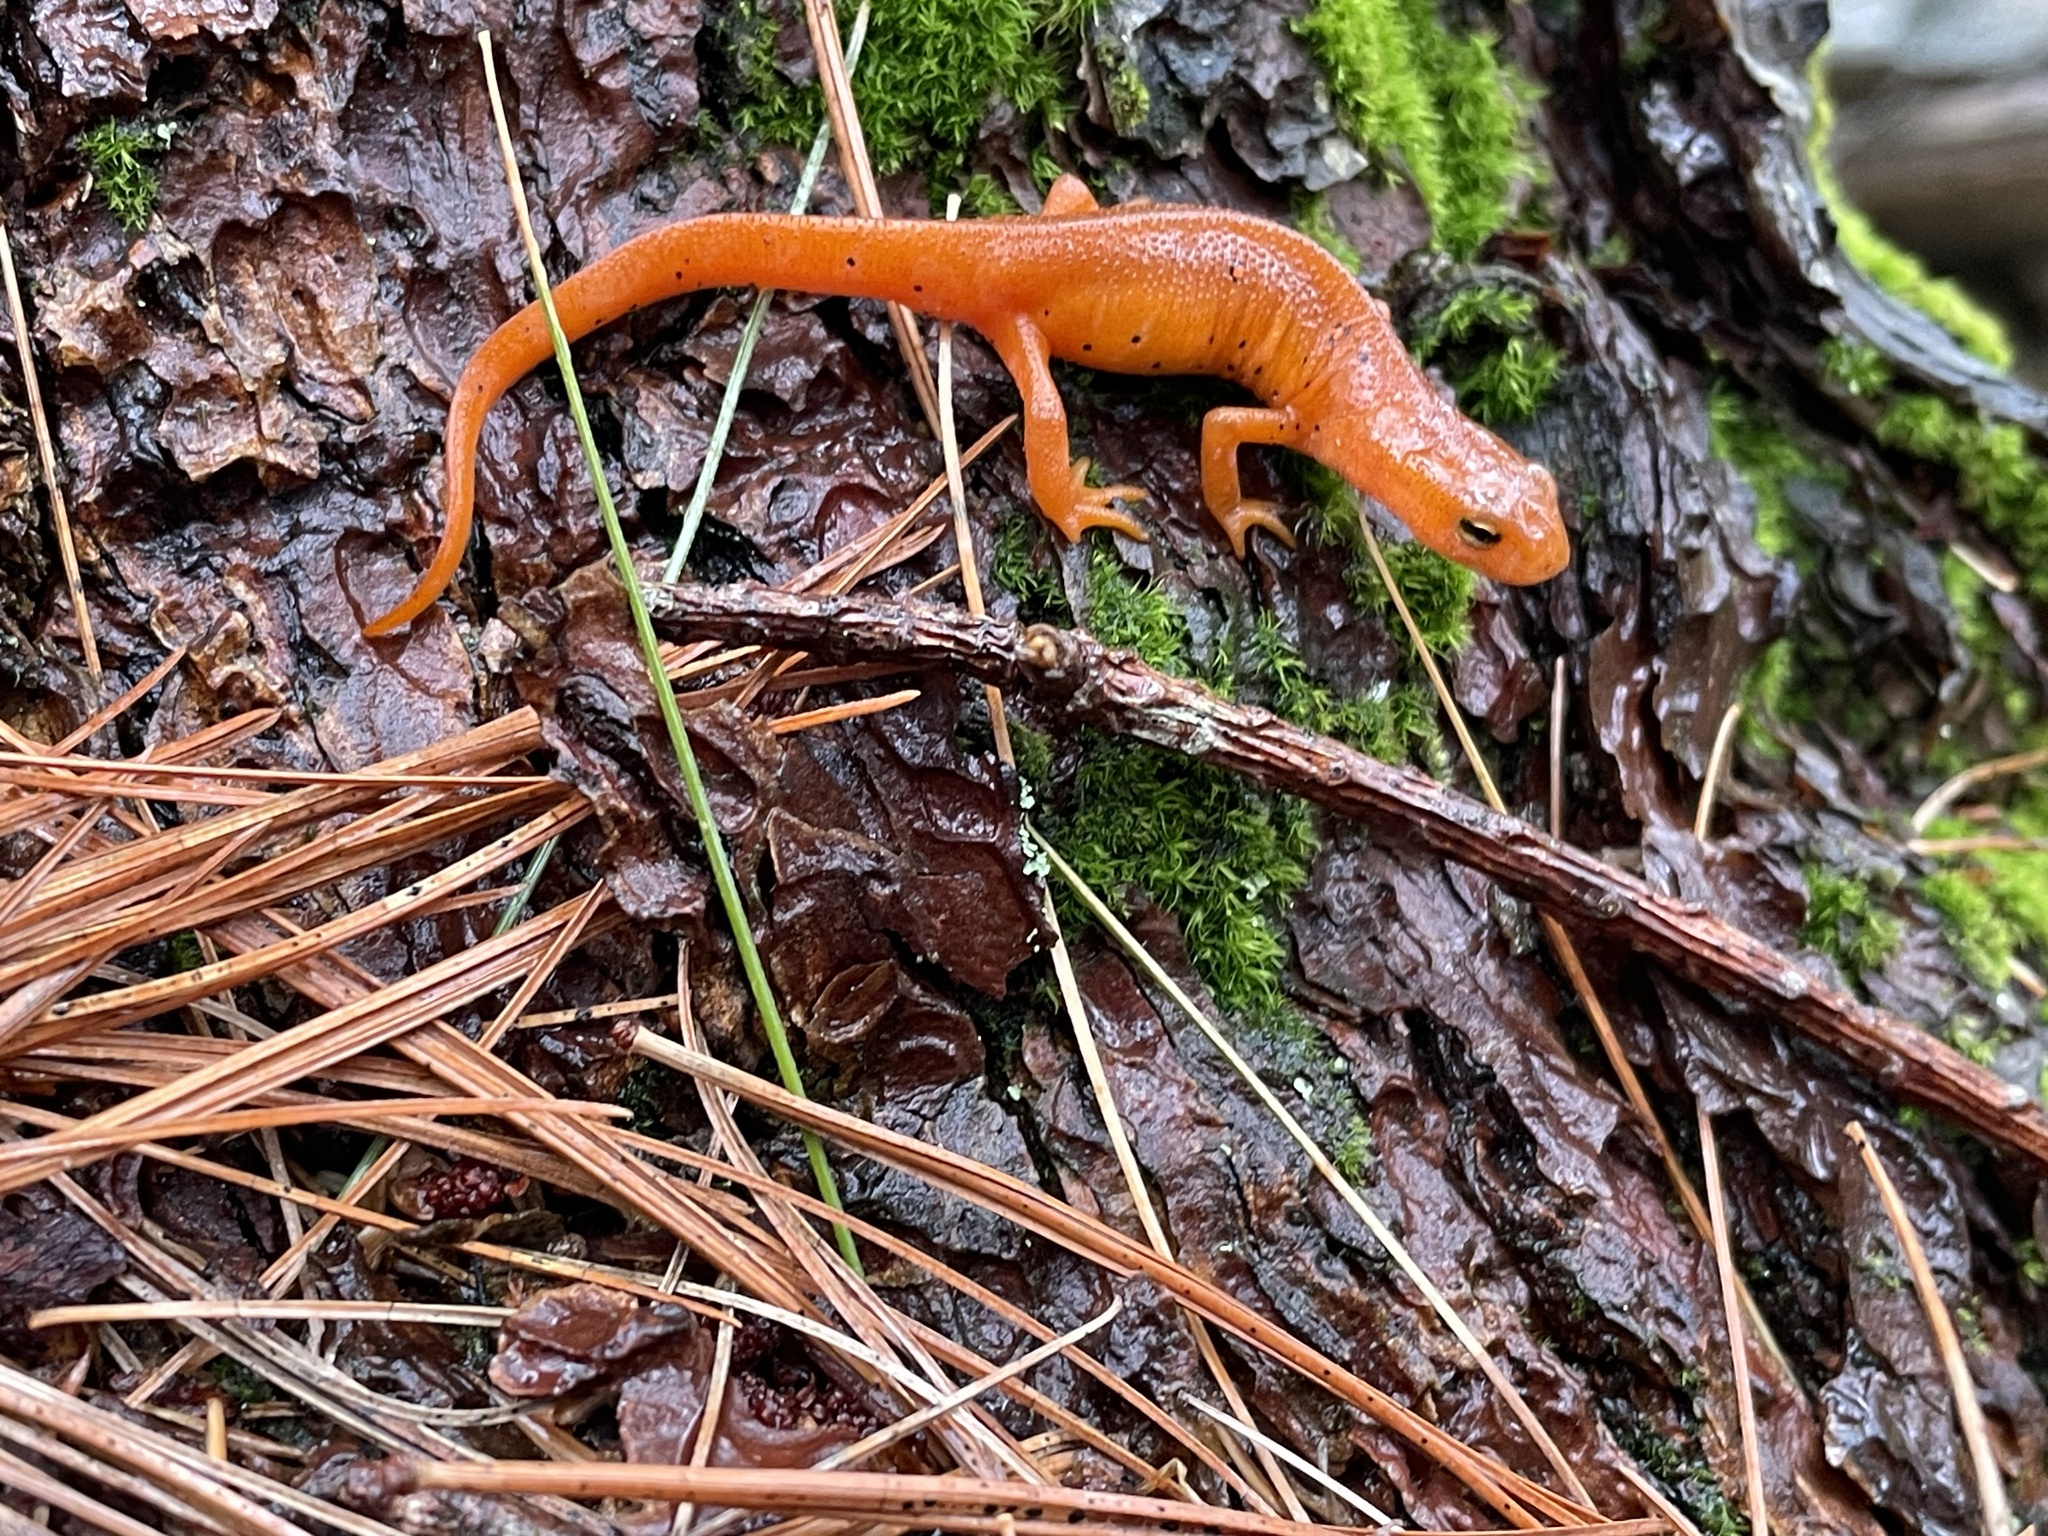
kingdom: Animalia
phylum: Chordata
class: Amphibia
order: Caudata
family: Salamandridae
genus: Notophthalmus
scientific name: Notophthalmus viridescens
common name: Eastern newt
